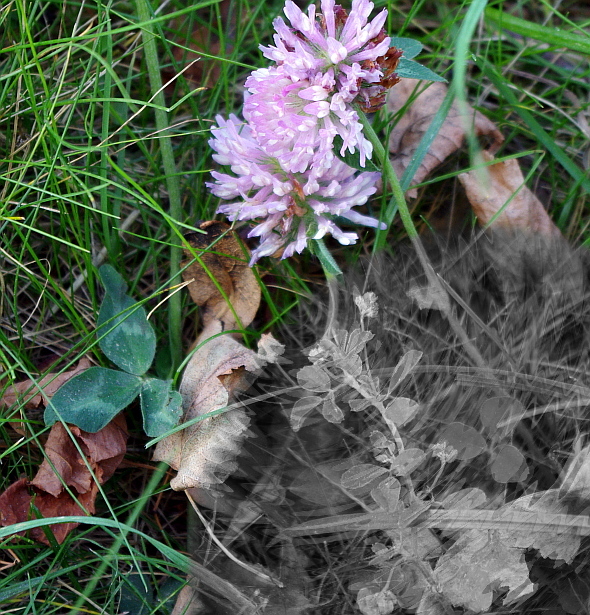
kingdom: Plantae
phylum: Tracheophyta
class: Magnoliopsida
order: Fabales
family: Fabaceae
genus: Trifolium
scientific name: Trifolium pratense
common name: Red clover
